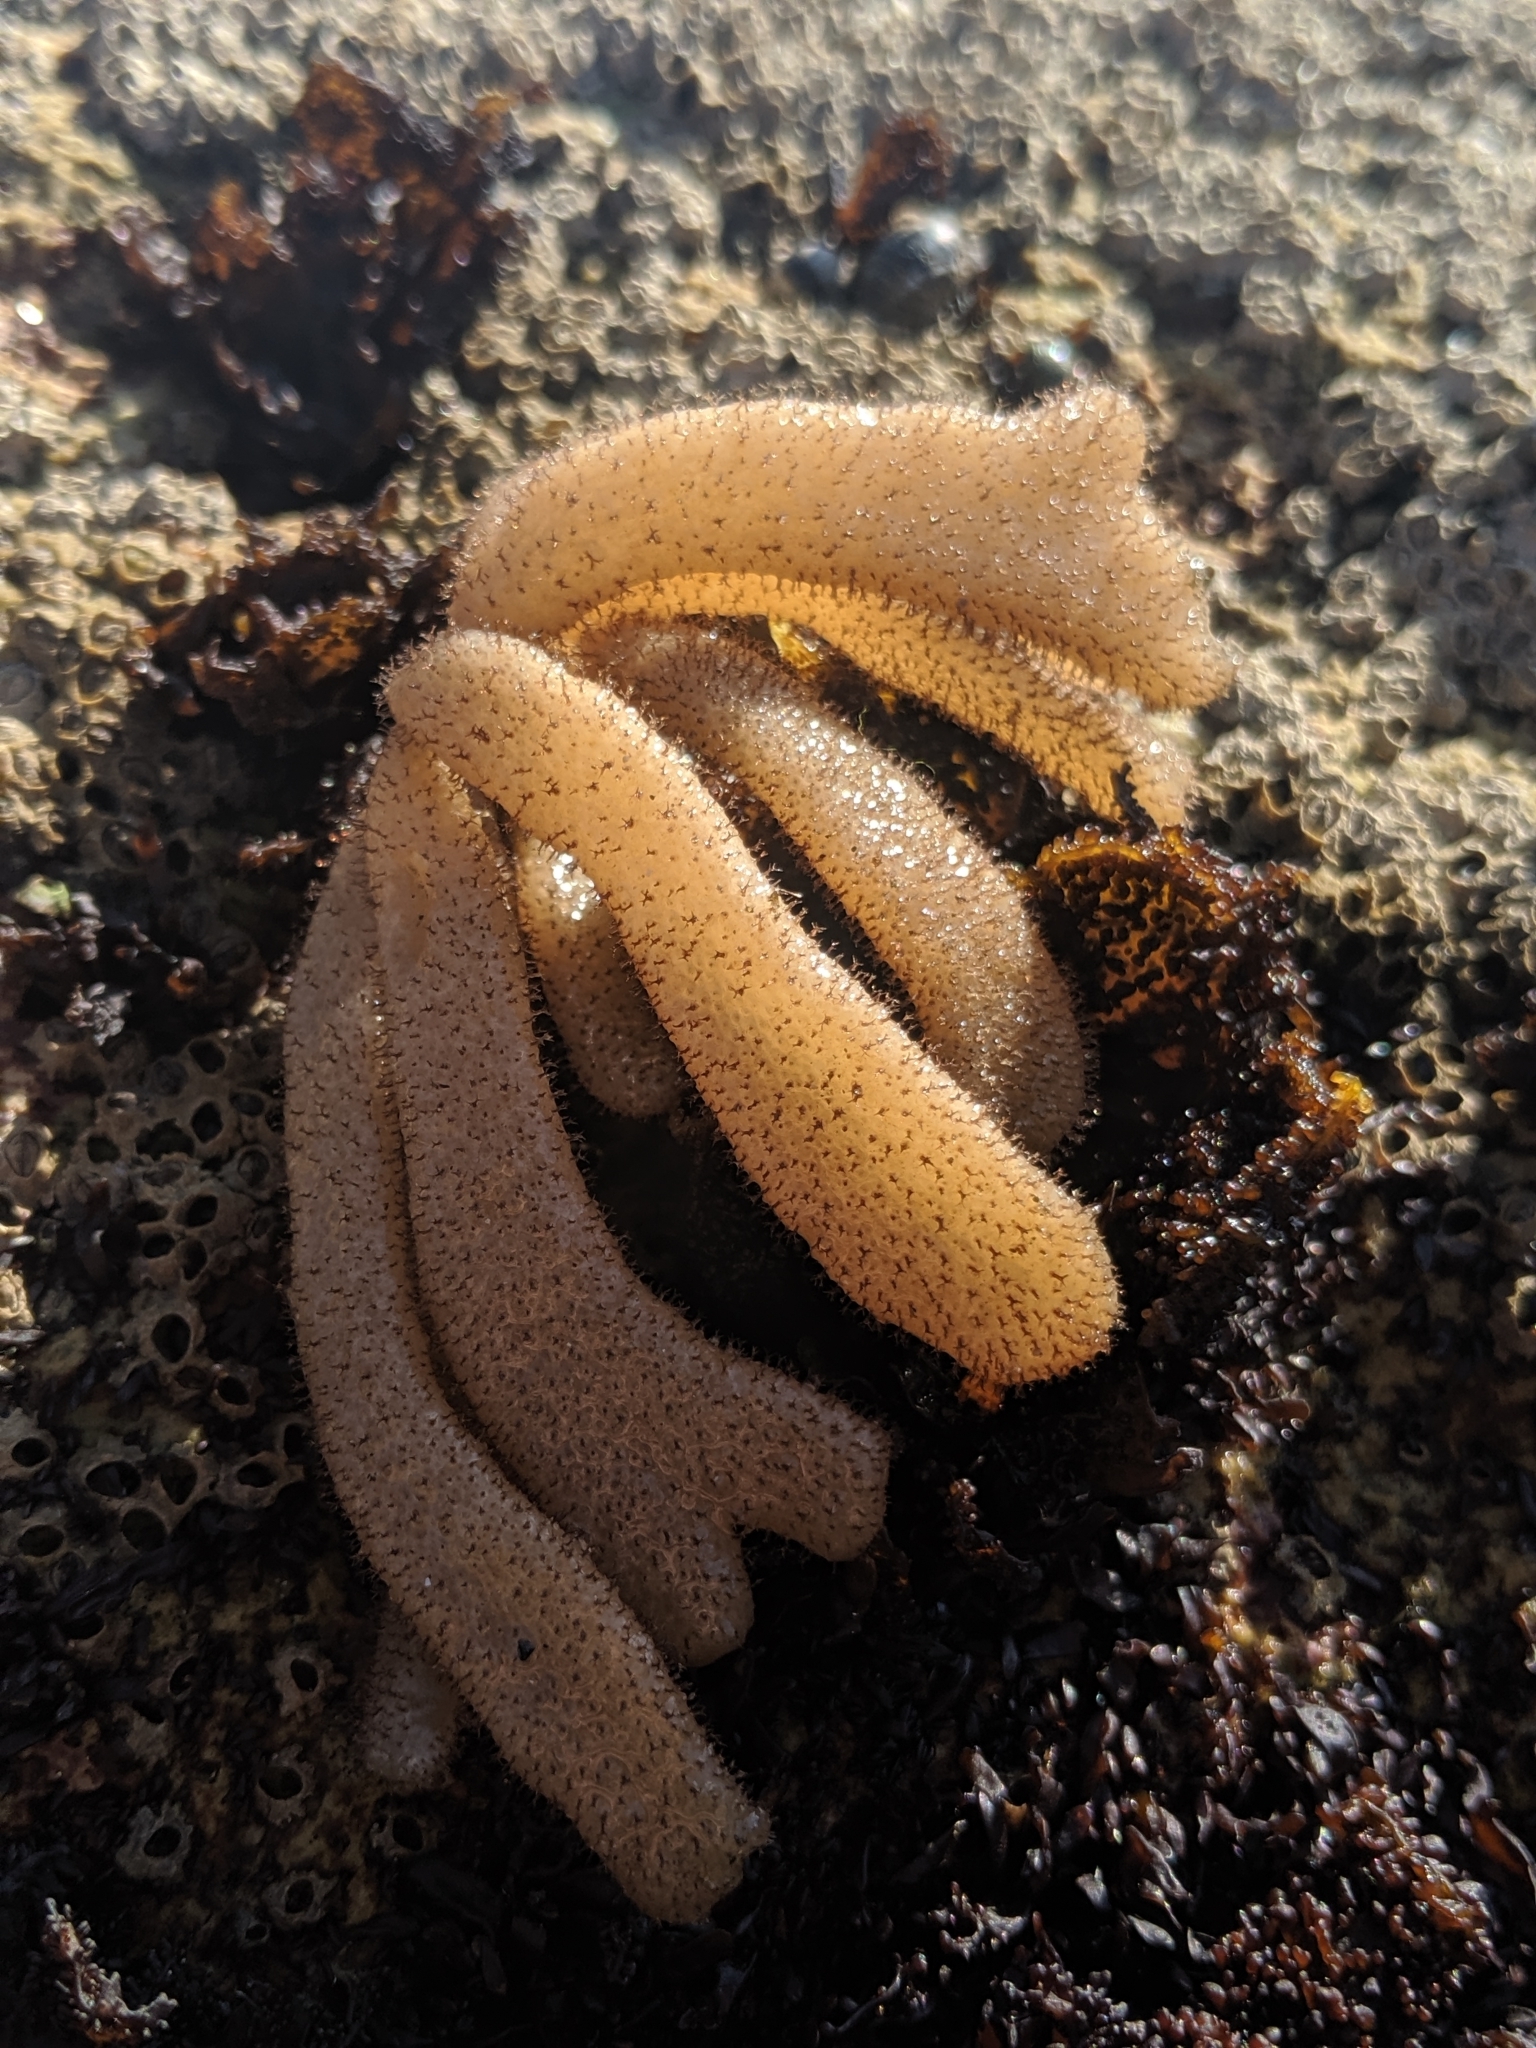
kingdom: Animalia
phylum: Bryozoa
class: Gymnolaemata
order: Ctenostomatida
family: Flustrellidridae
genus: Flustrellidra
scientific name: Flustrellidra corniculata
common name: Spiny leather bryozoan
